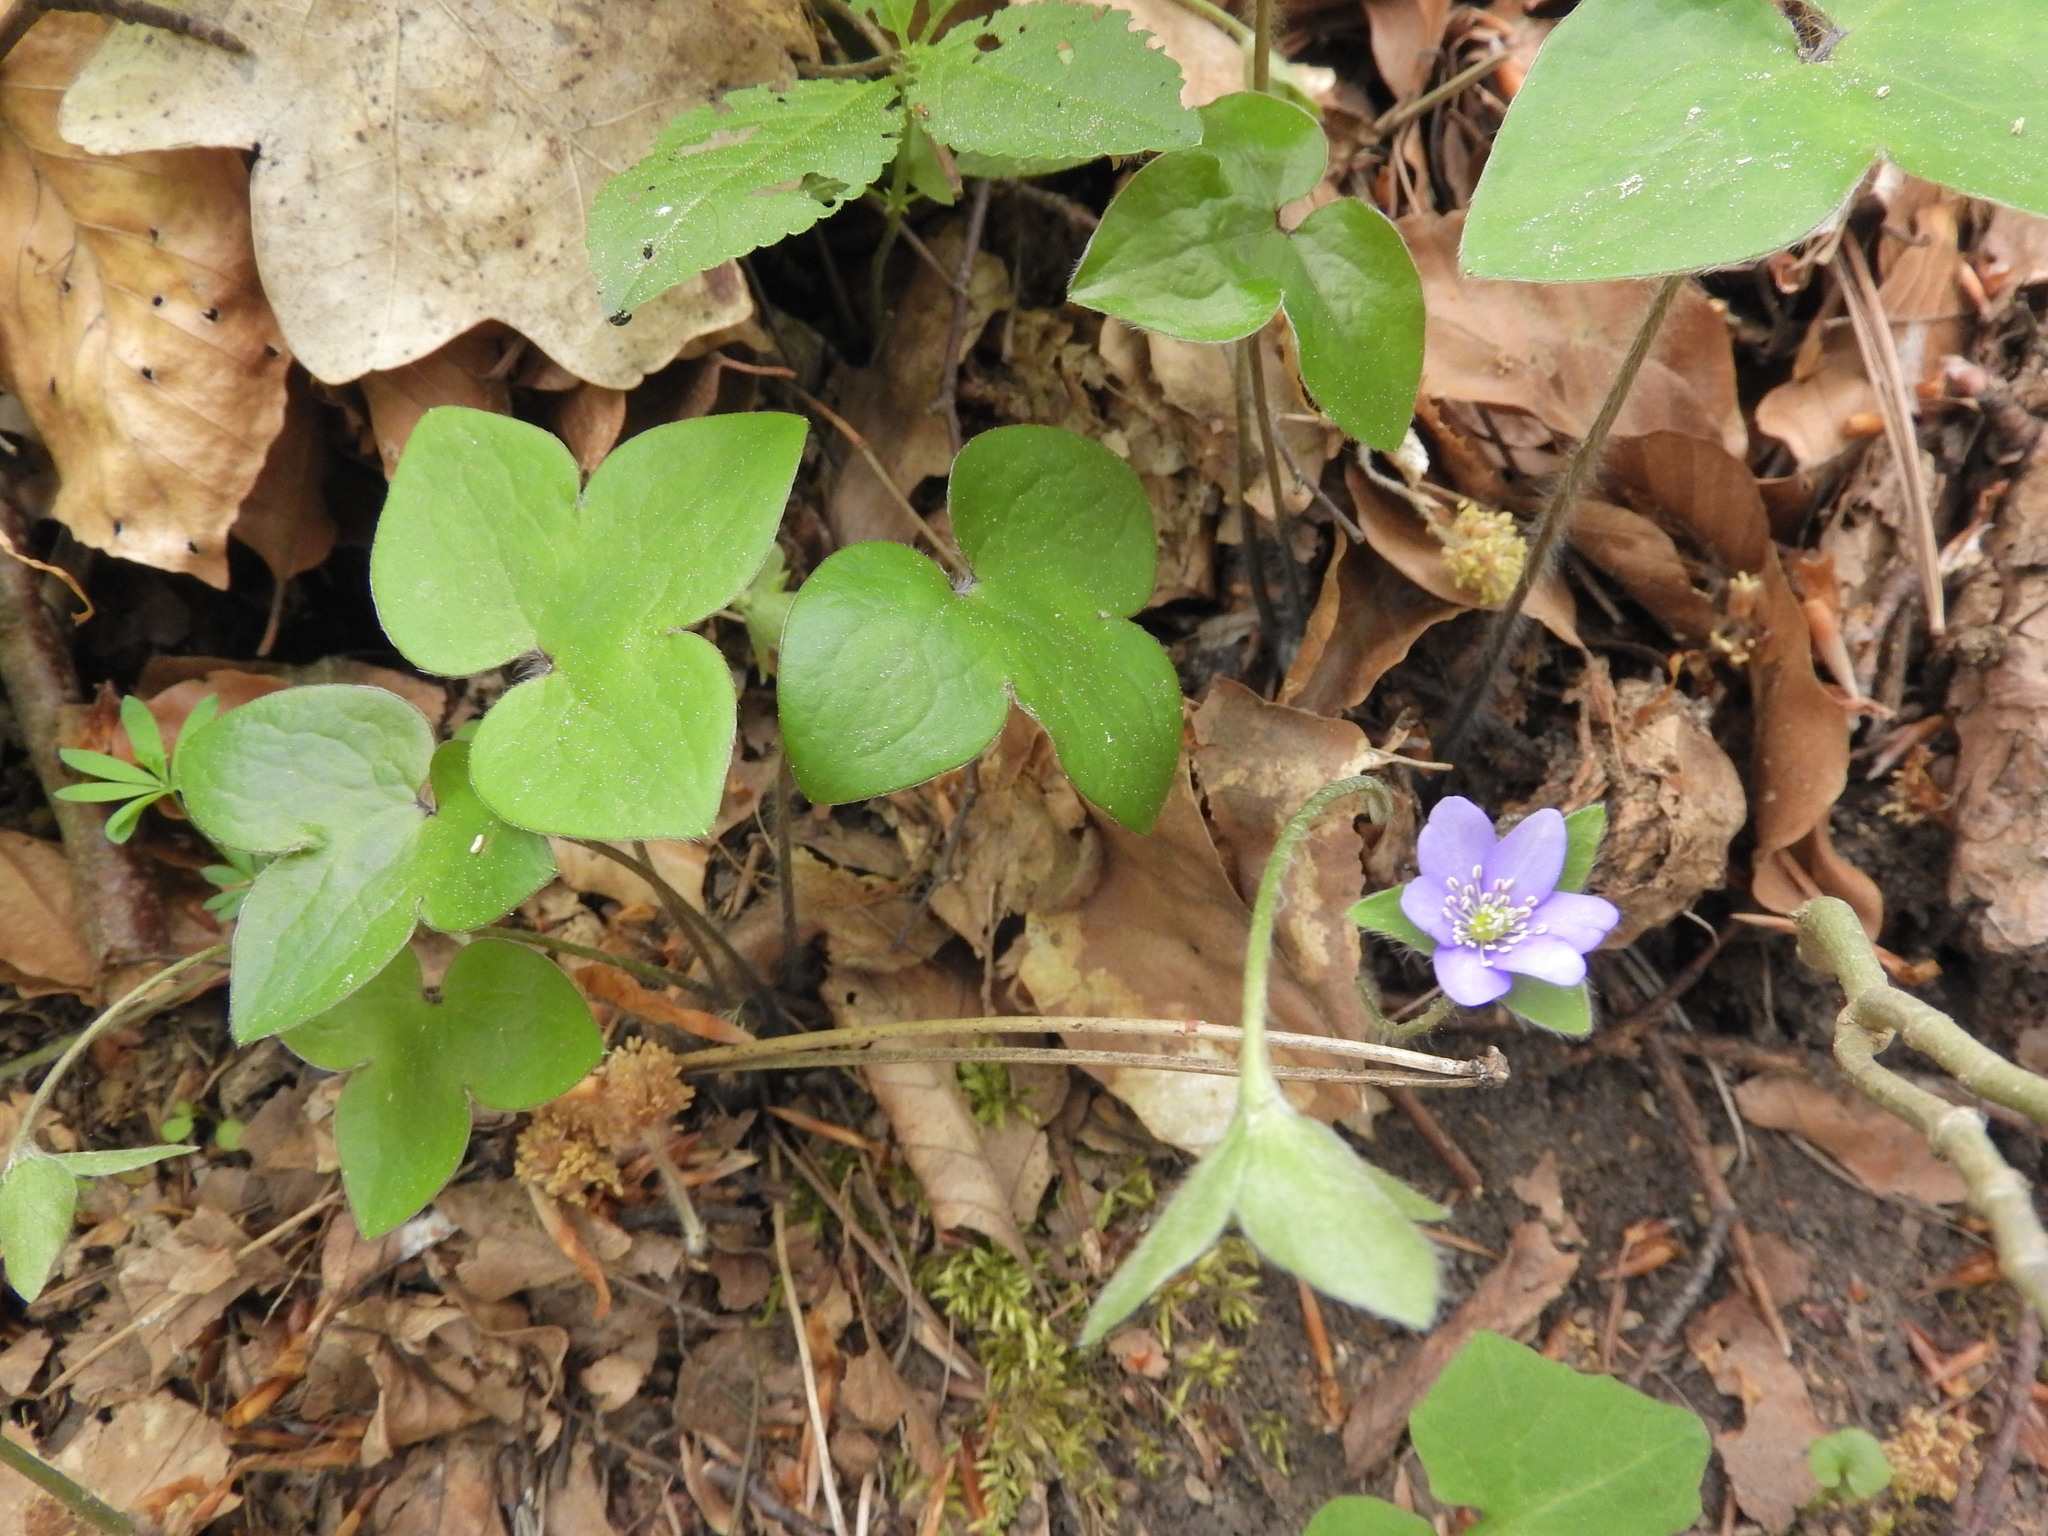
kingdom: Plantae
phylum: Tracheophyta
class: Magnoliopsida
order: Ranunculales
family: Ranunculaceae
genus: Hepatica
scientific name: Hepatica nobilis
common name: Liverleaf
